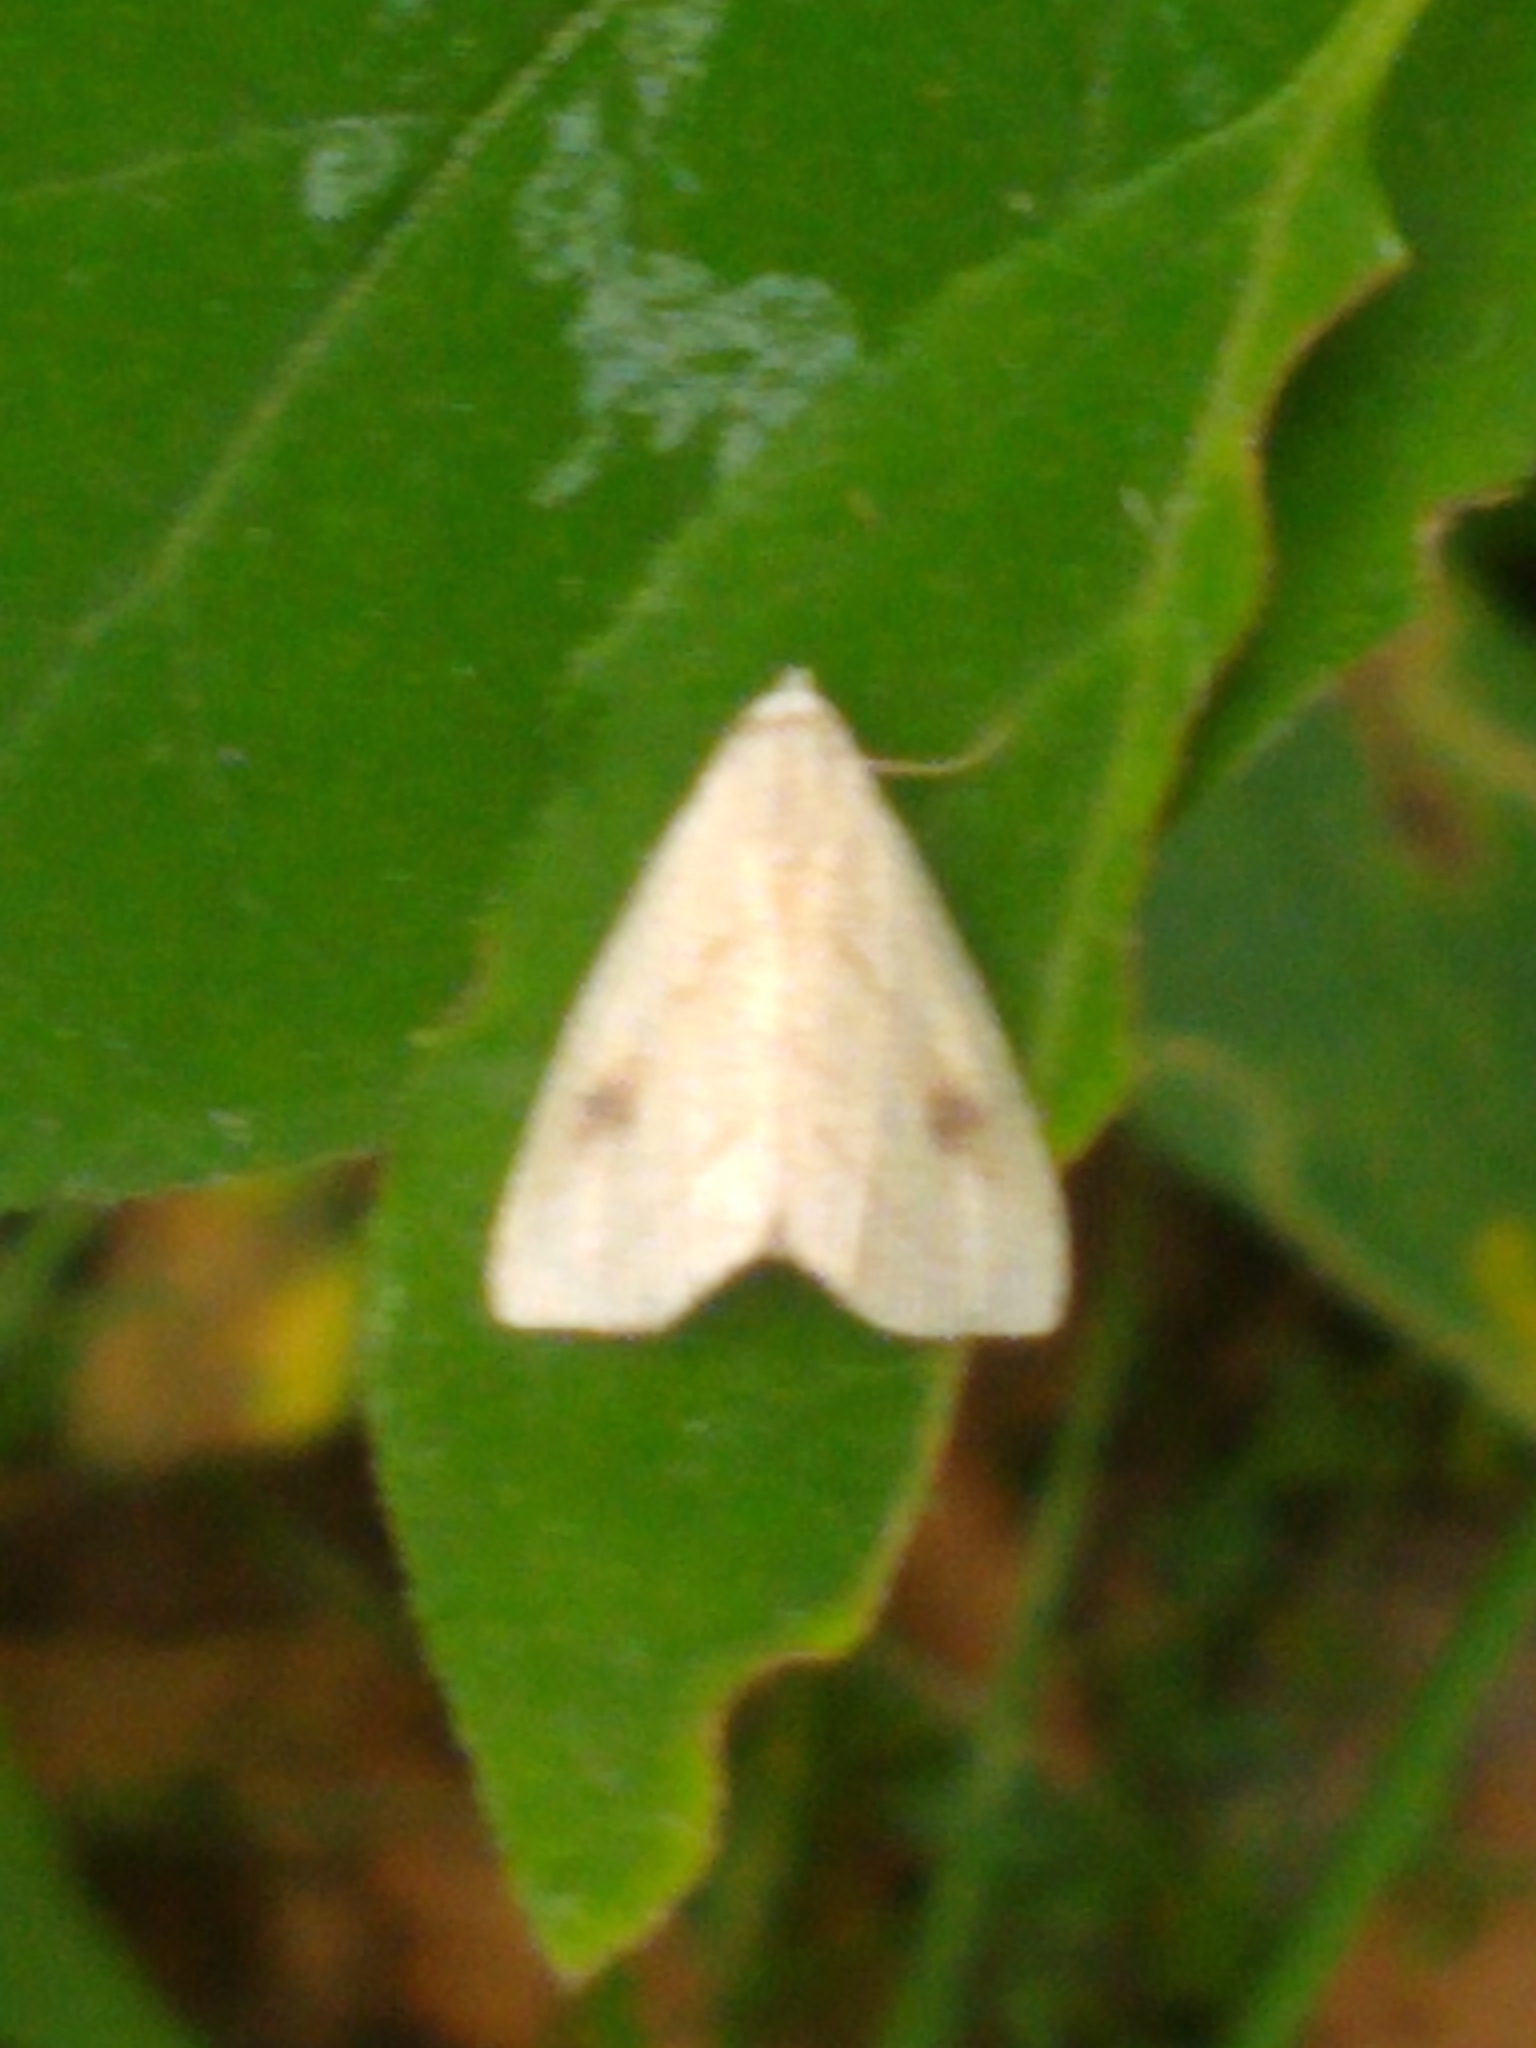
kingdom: Animalia
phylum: Arthropoda
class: Insecta
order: Lepidoptera
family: Erebidae
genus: Rivula
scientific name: Rivula propinqualis
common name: Spotted grass moth
